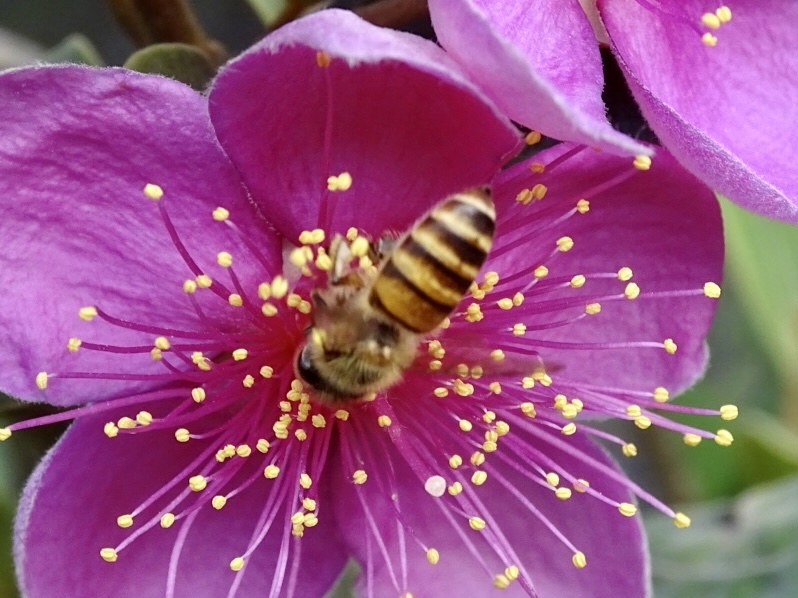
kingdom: Animalia
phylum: Arthropoda
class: Insecta
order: Hymenoptera
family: Apidae
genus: Apis
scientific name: Apis cerana
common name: Honey bee
